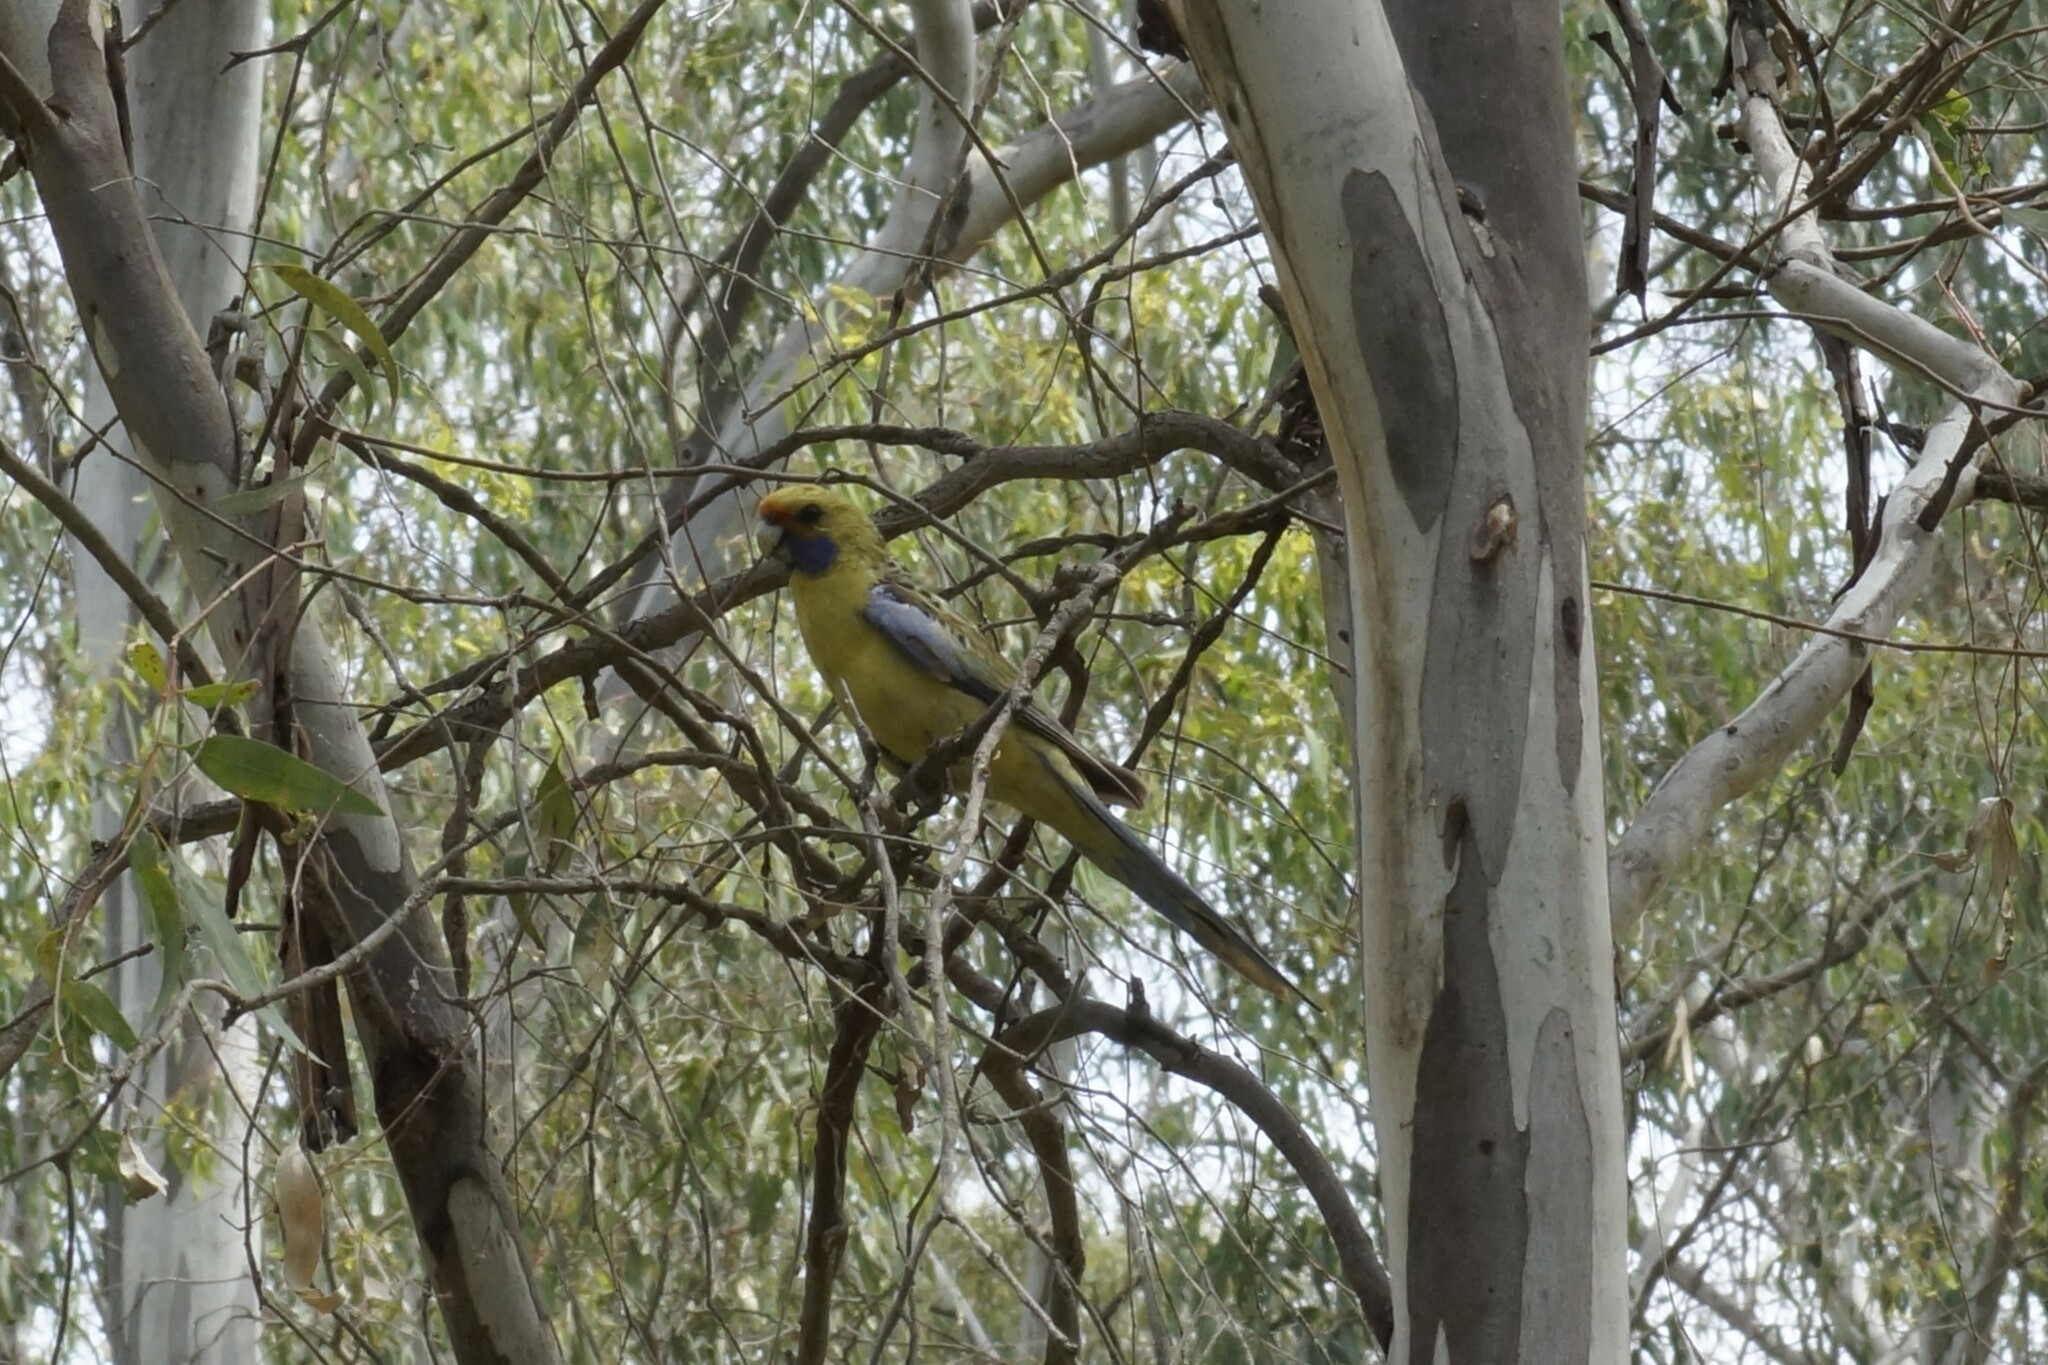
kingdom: Animalia
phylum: Chordata
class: Aves
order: Psittaciformes
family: Psittacidae
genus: Platycercus
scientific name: Platycercus elegans
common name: Crimson rosella
